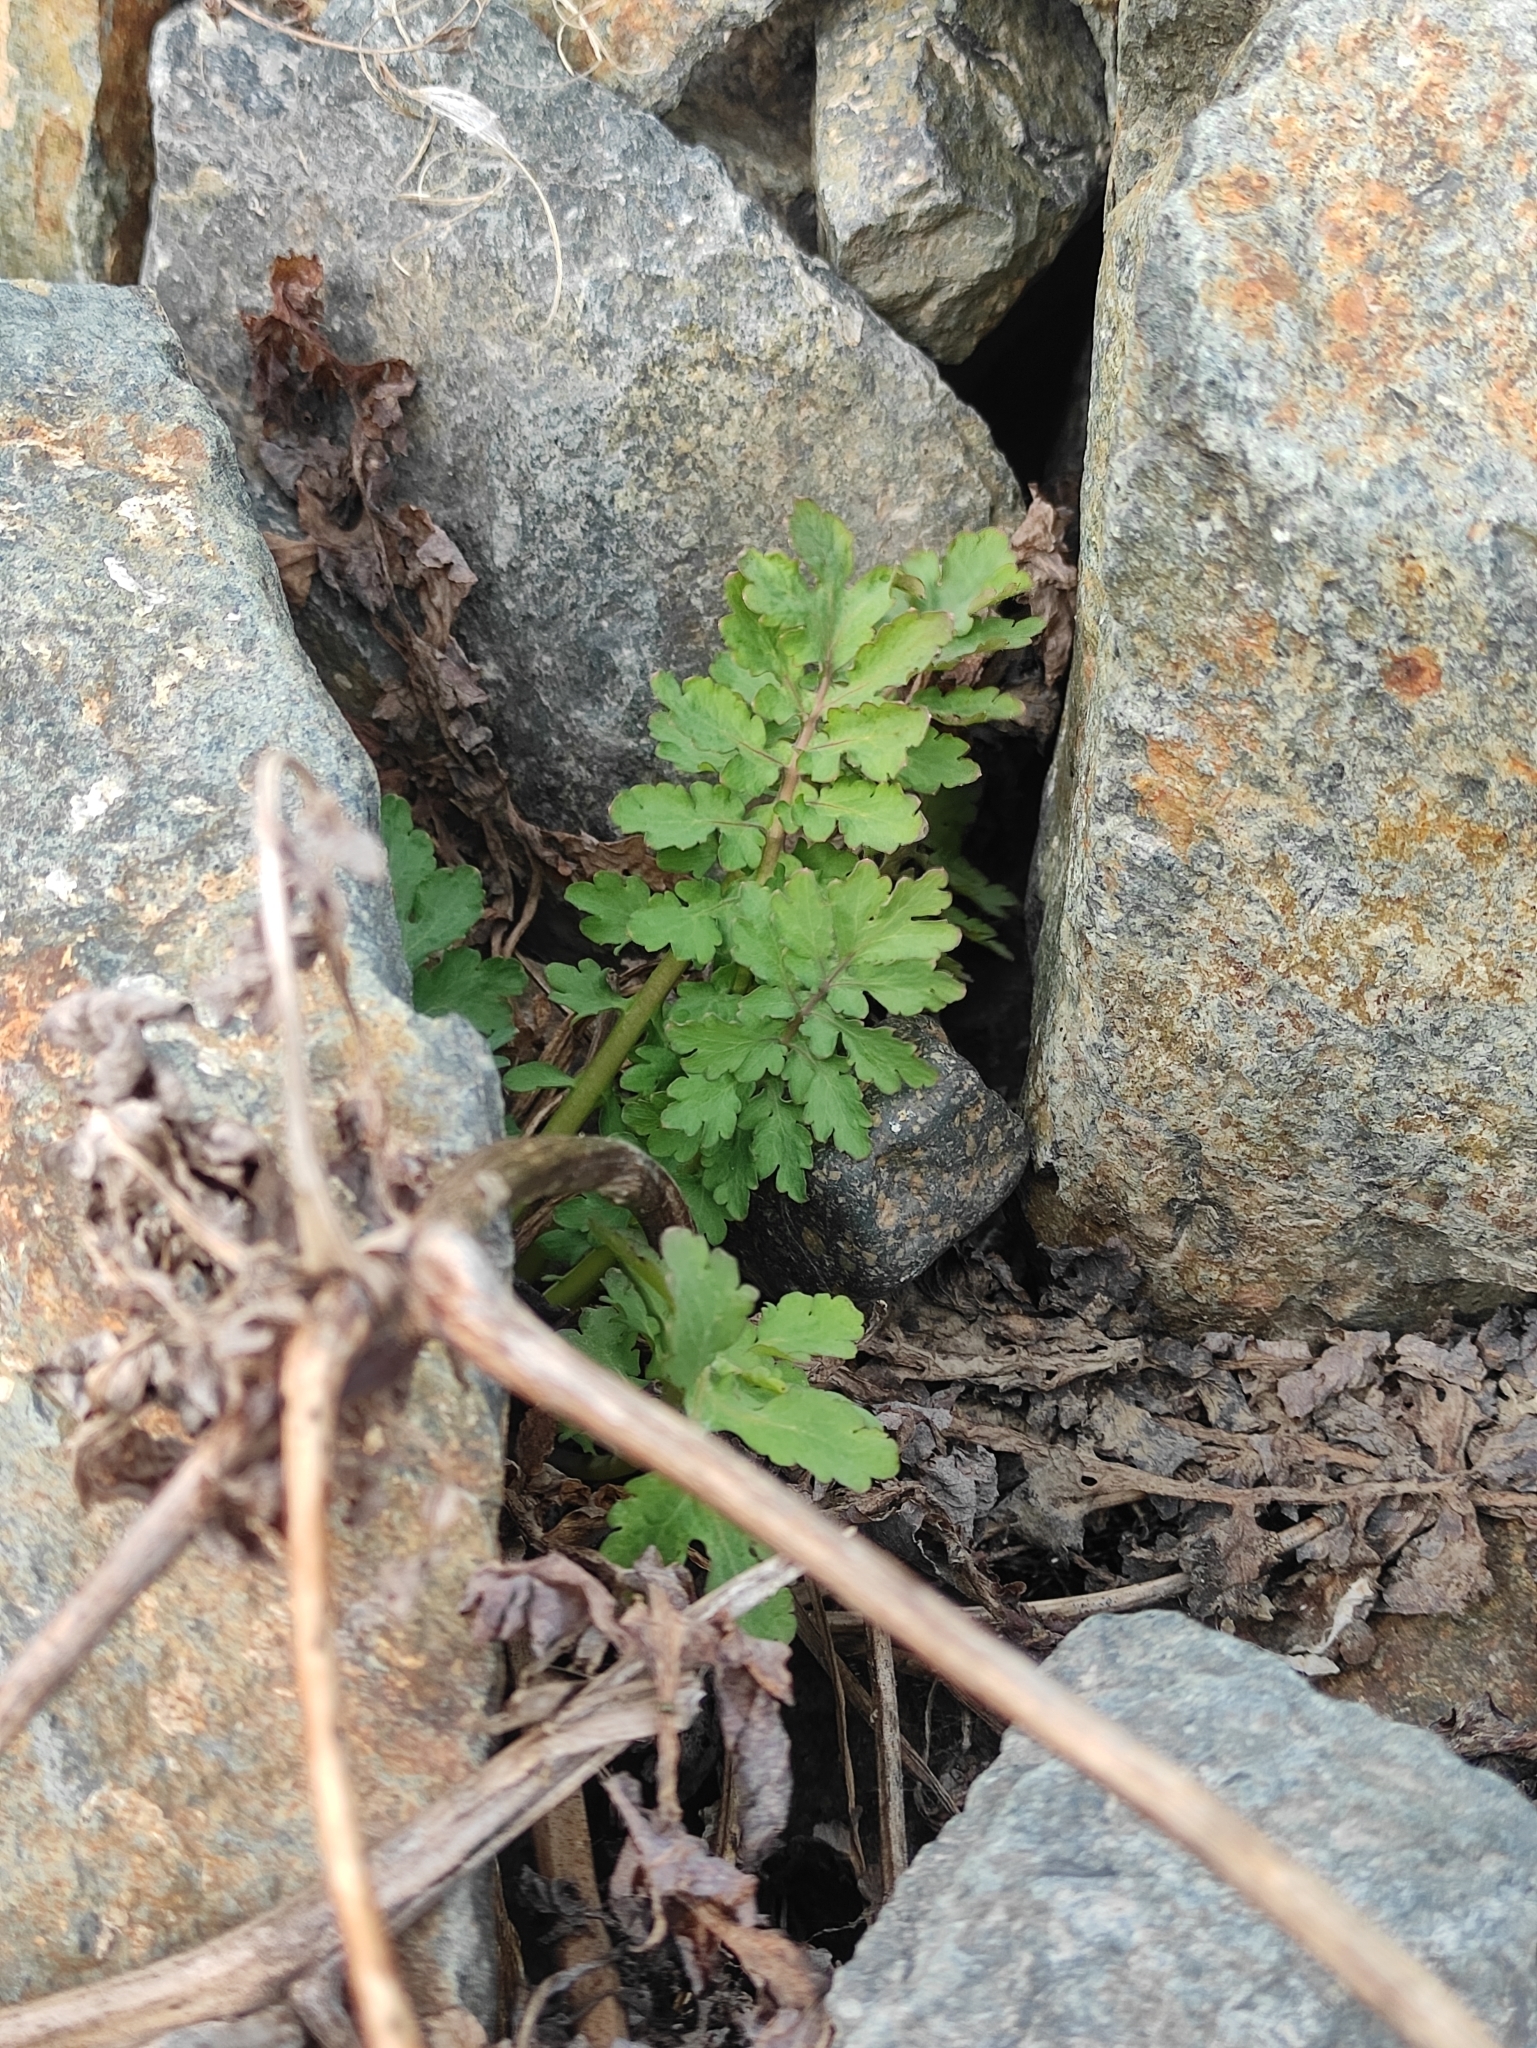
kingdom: Plantae
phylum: Tracheophyta
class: Magnoliopsida
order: Ranunculales
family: Papaveraceae
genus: Chelidonium
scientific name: Chelidonium majus
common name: Greater celandine
